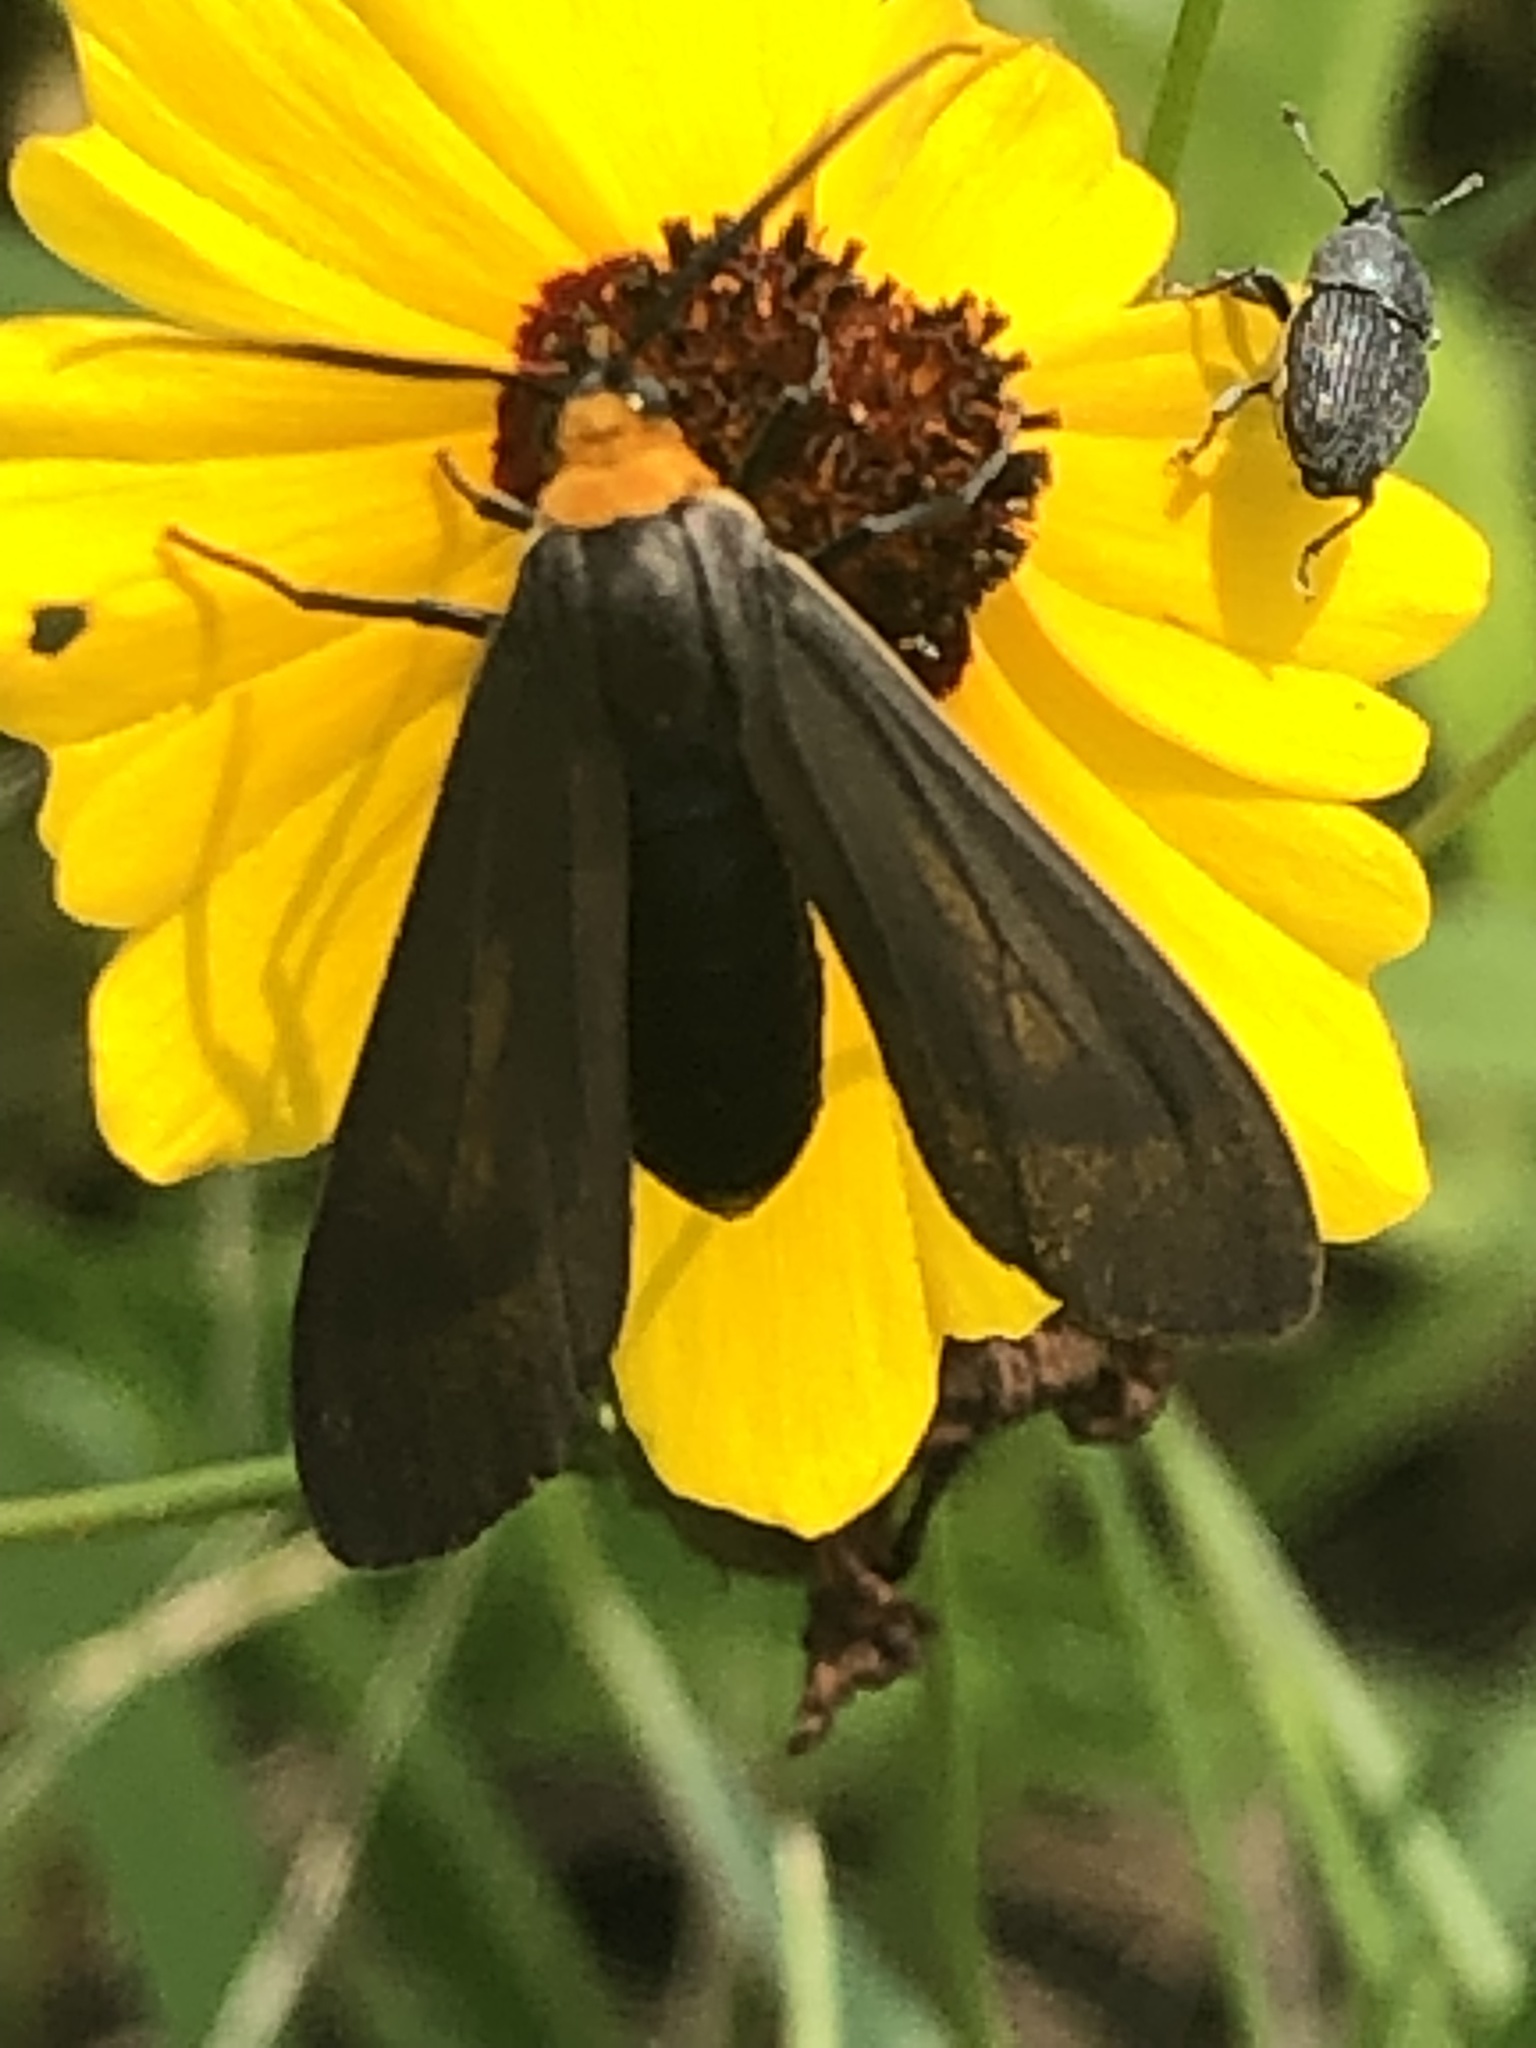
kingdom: Animalia
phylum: Arthropoda
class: Insecta
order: Lepidoptera
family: Erebidae
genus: Cisseps
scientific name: Cisseps fulvicollis
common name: Yellow-collared scape moth
